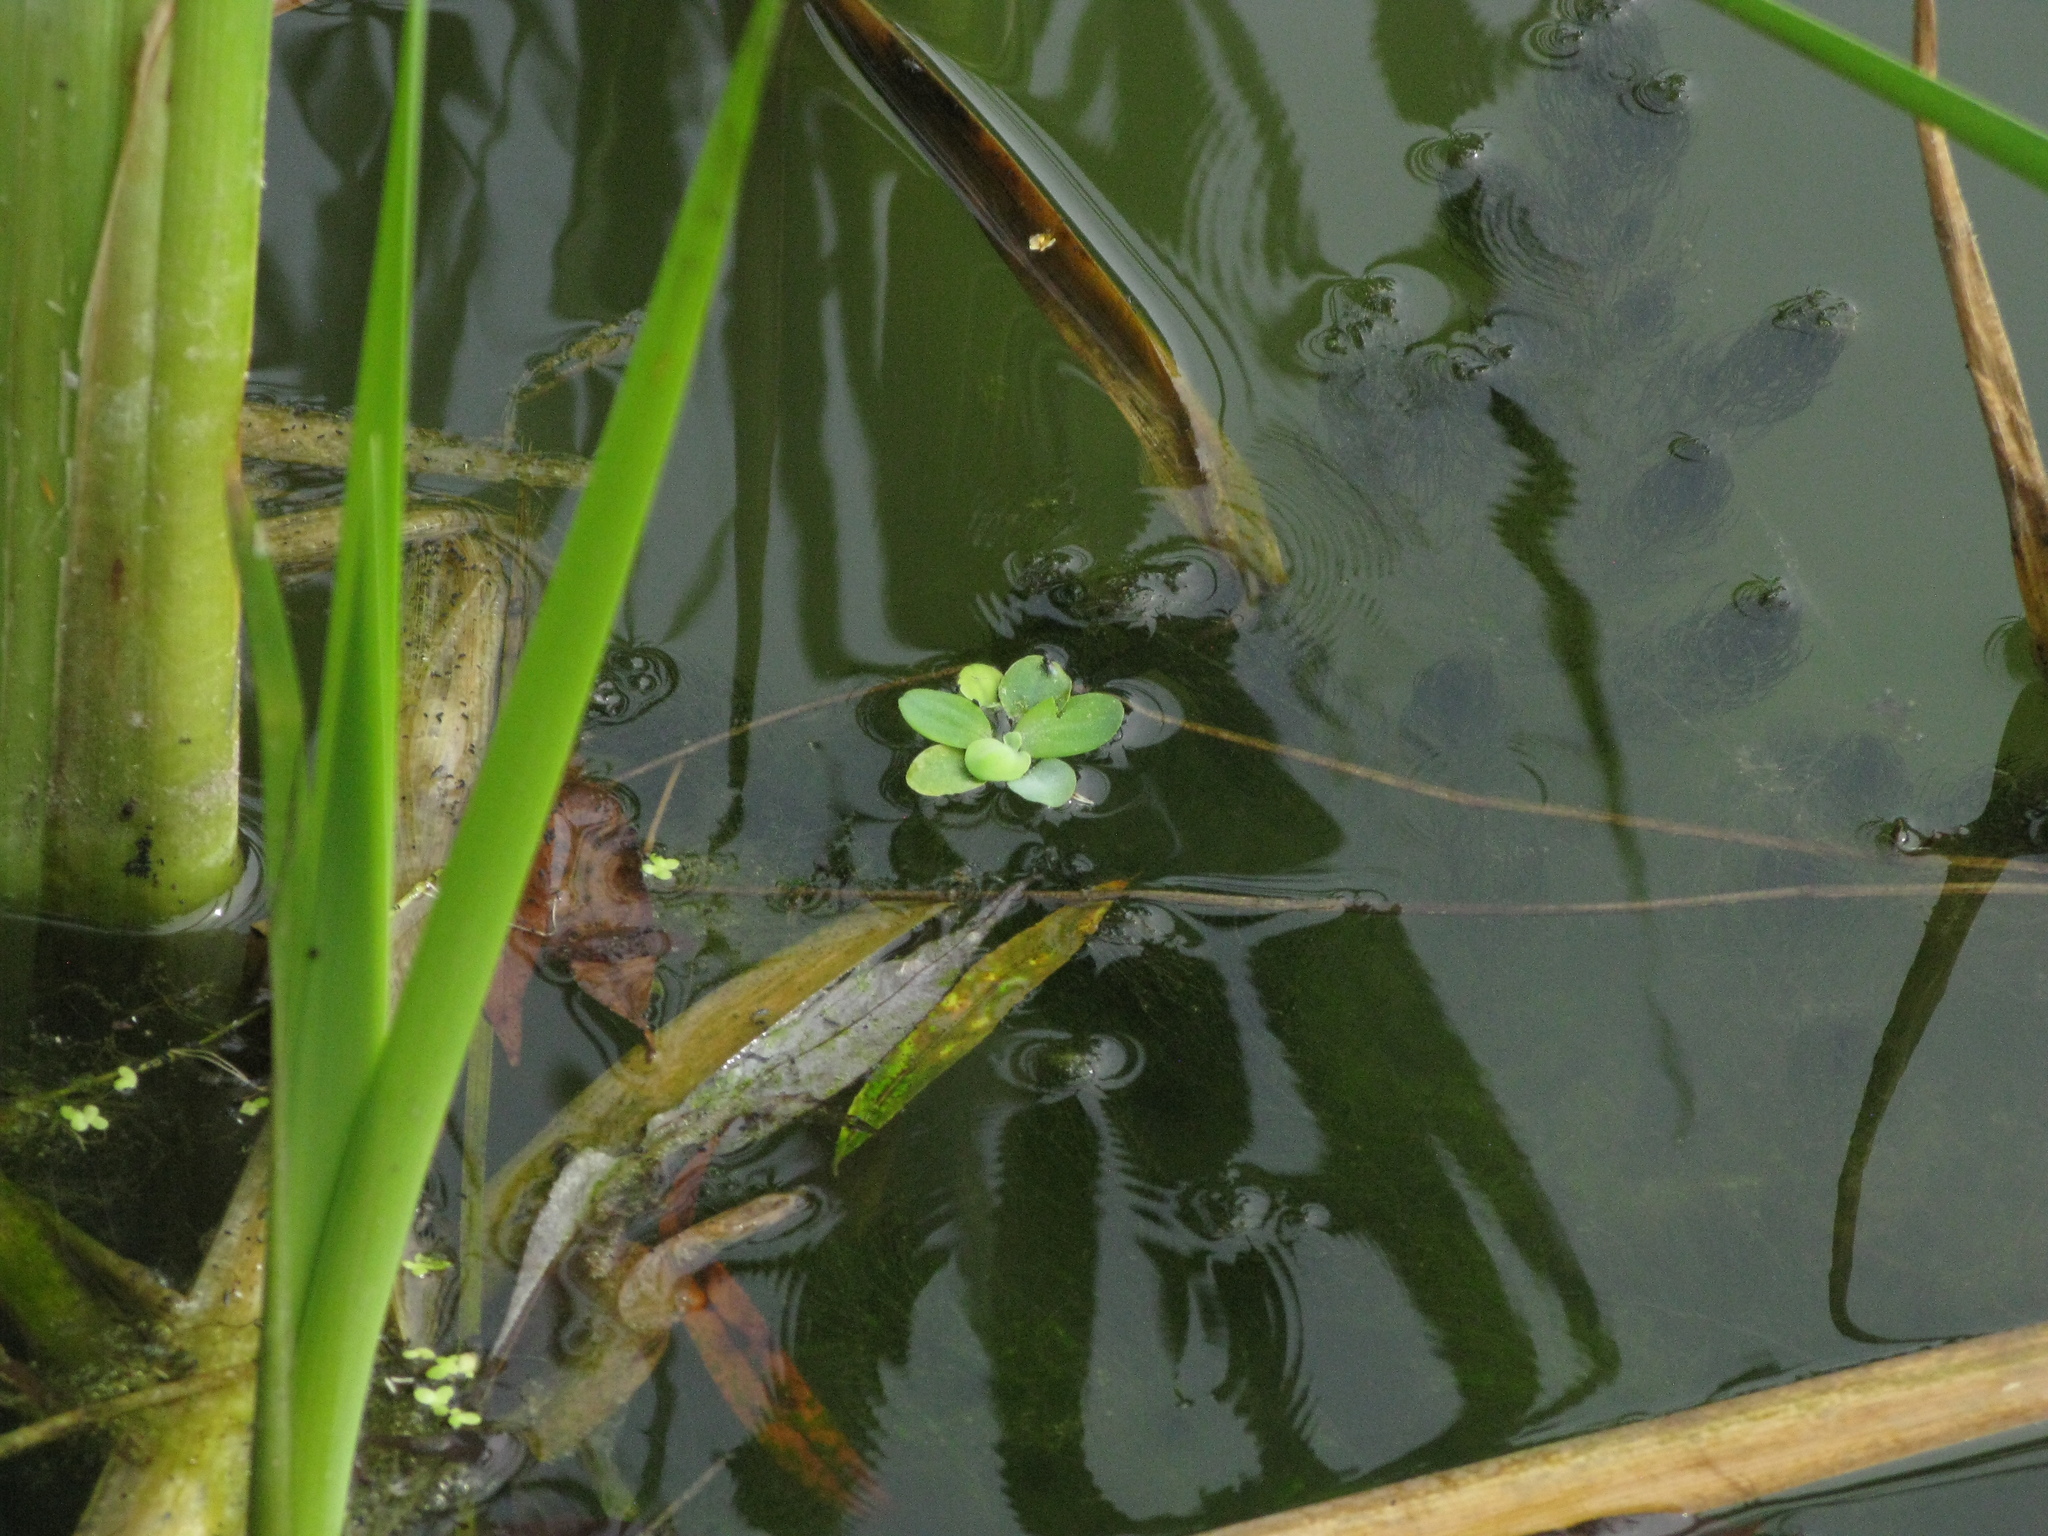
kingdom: Plantae
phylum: Tracheophyta
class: Liliopsida
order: Alismatales
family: Araceae
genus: Pistia
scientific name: Pistia stratiotes
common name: Water lettuce
